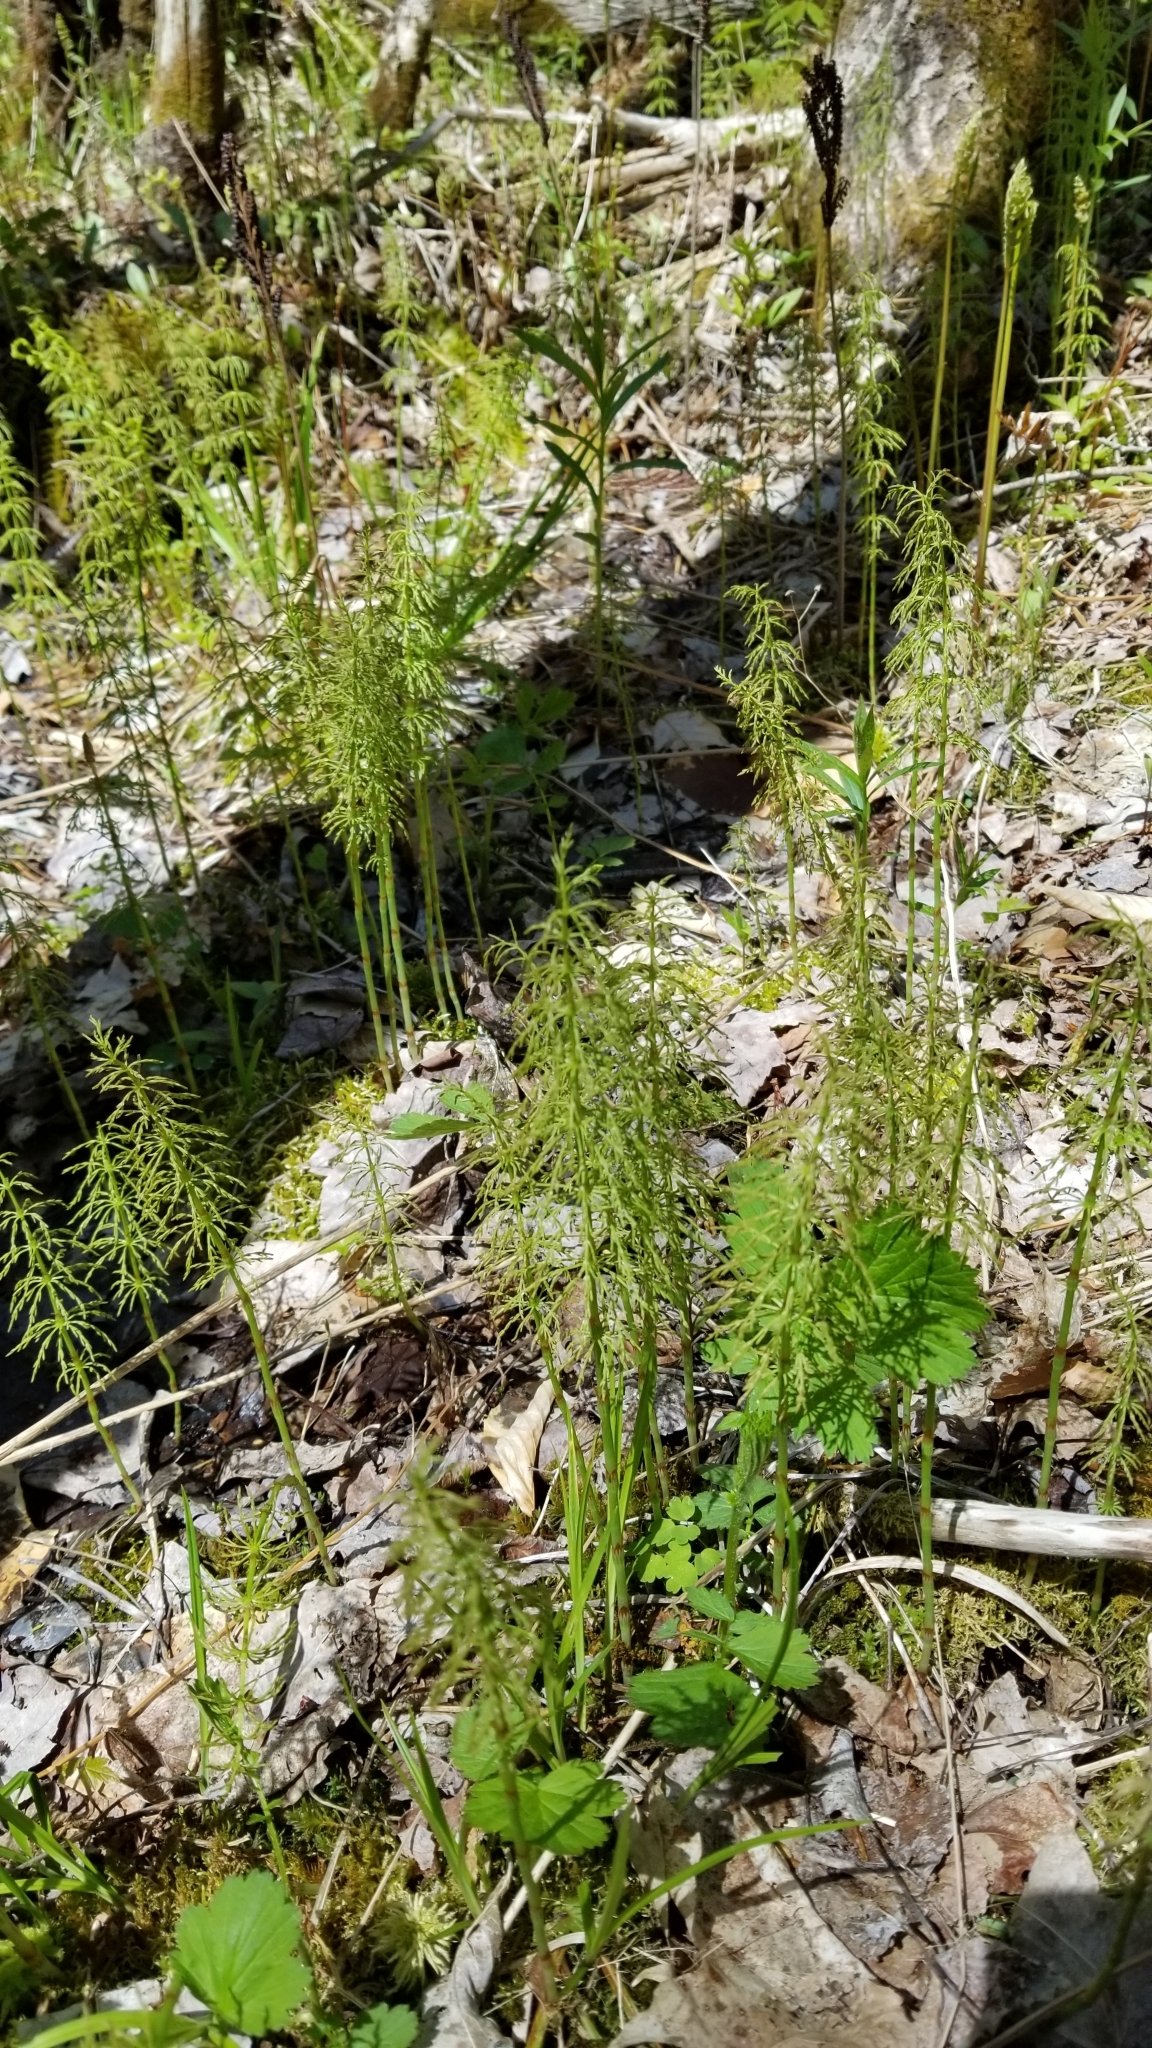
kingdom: Plantae
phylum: Tracheophyta
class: Polypodiopsida
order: Equisetales
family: Equisetaceae
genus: Equisetum
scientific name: Equisetum sylvaticum
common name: Wood horsetail
